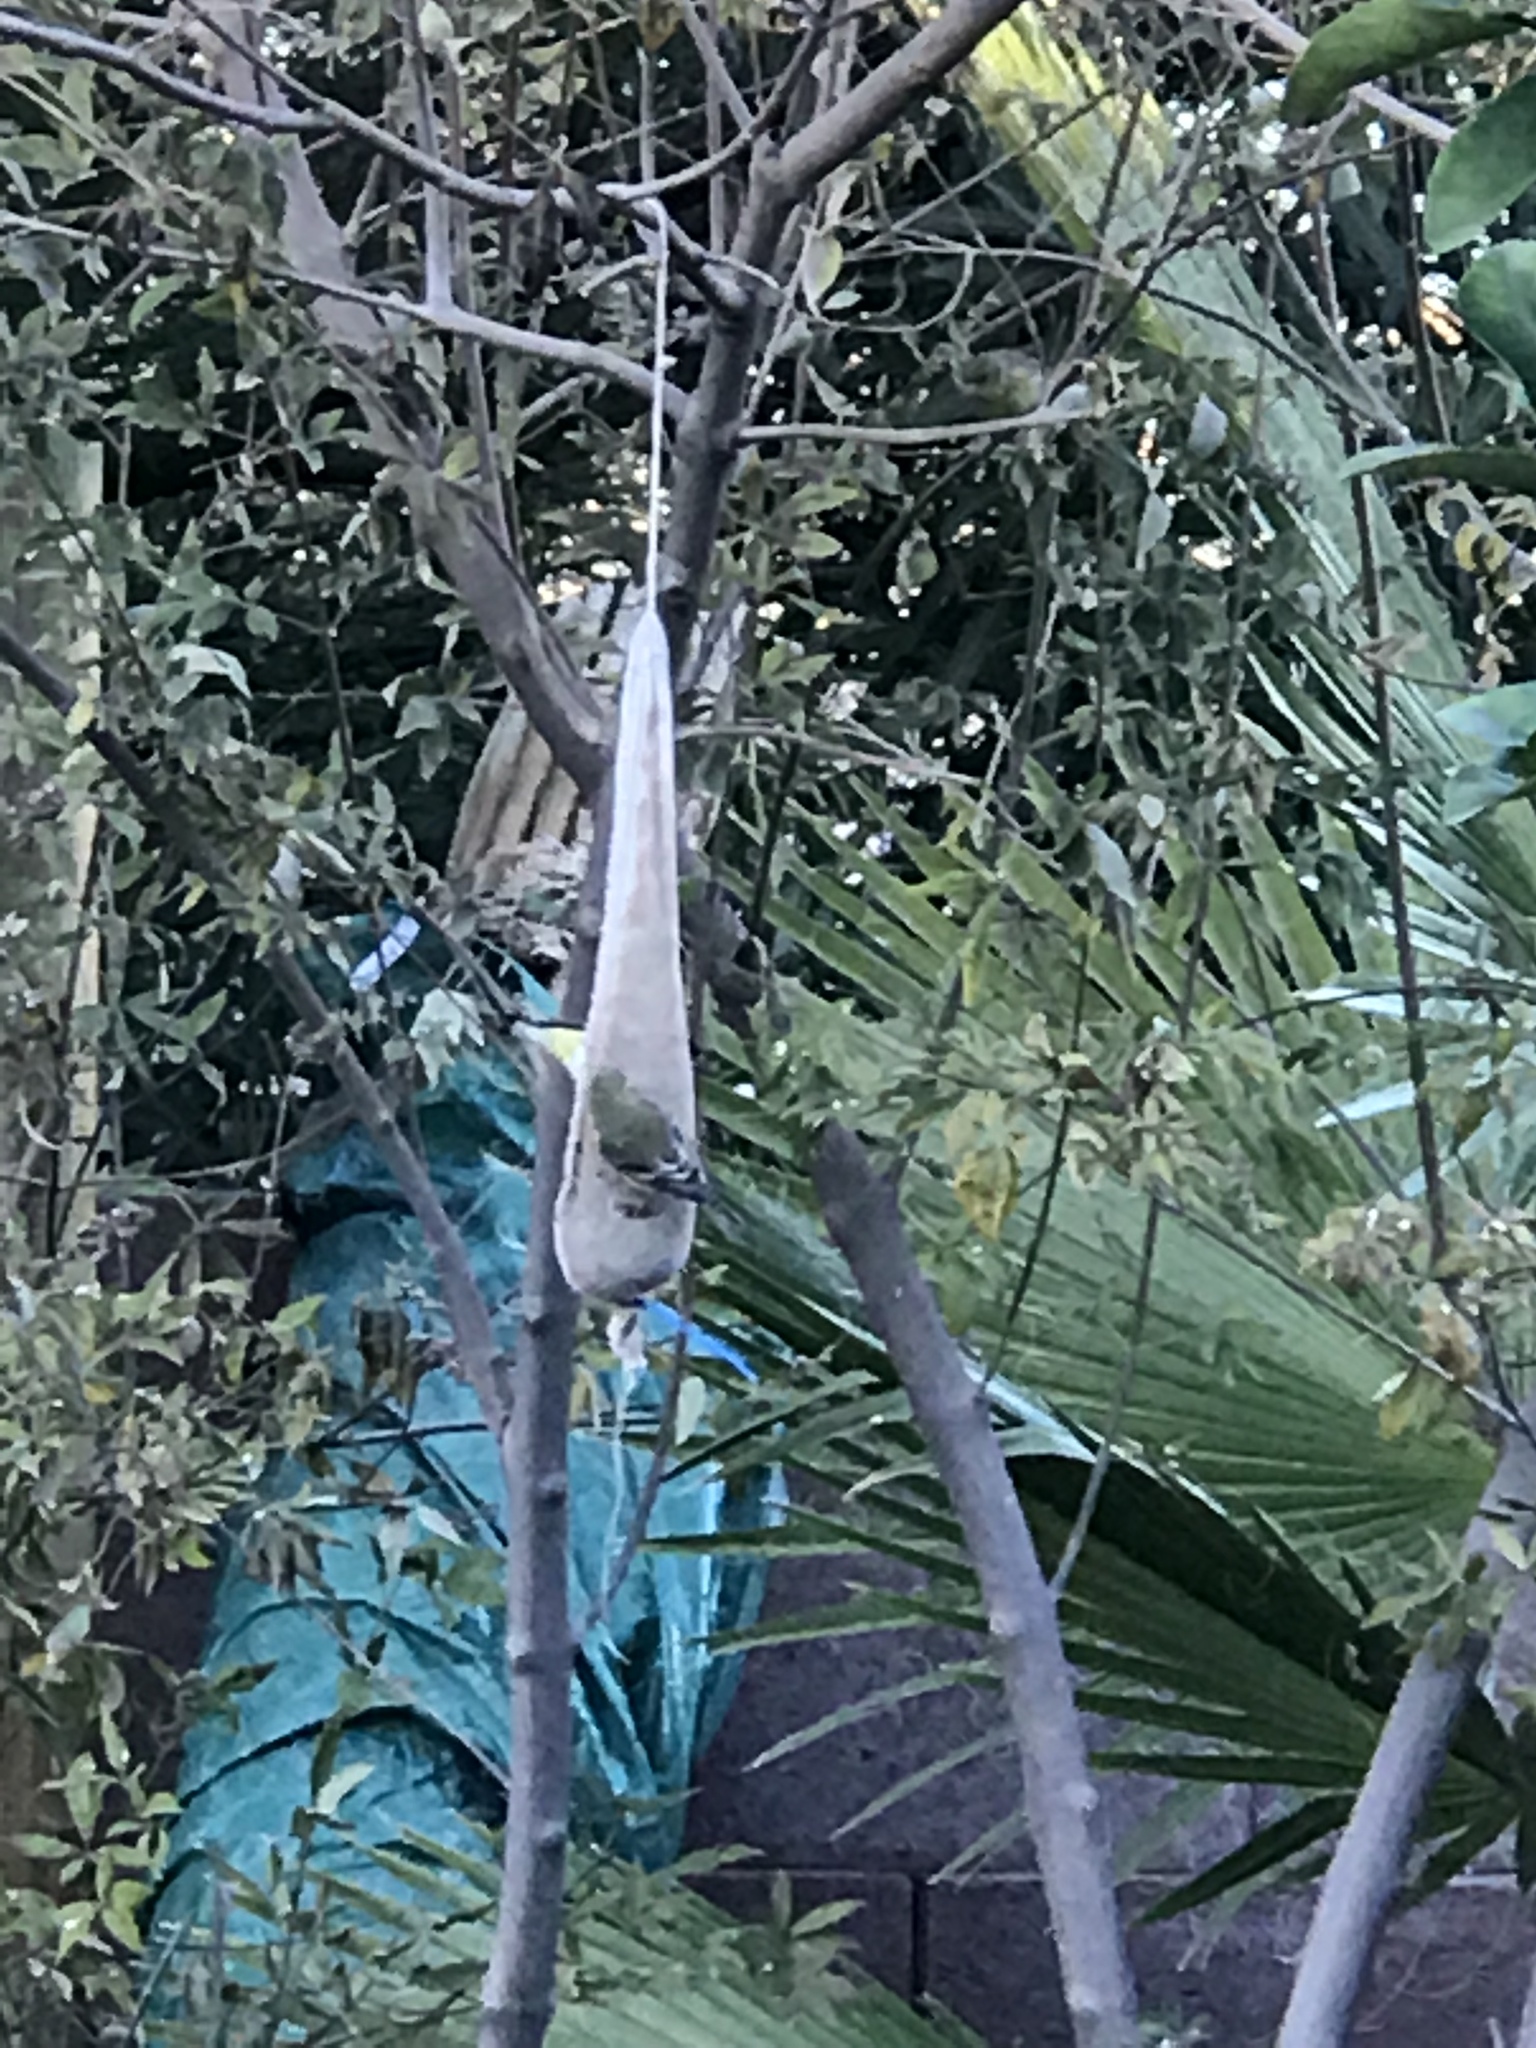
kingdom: Animalia
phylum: Chordata
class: Aves
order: Passeriformes
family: Fringillidae
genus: Spinus
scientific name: Spinus psaltria
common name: Lesser goldfinch
